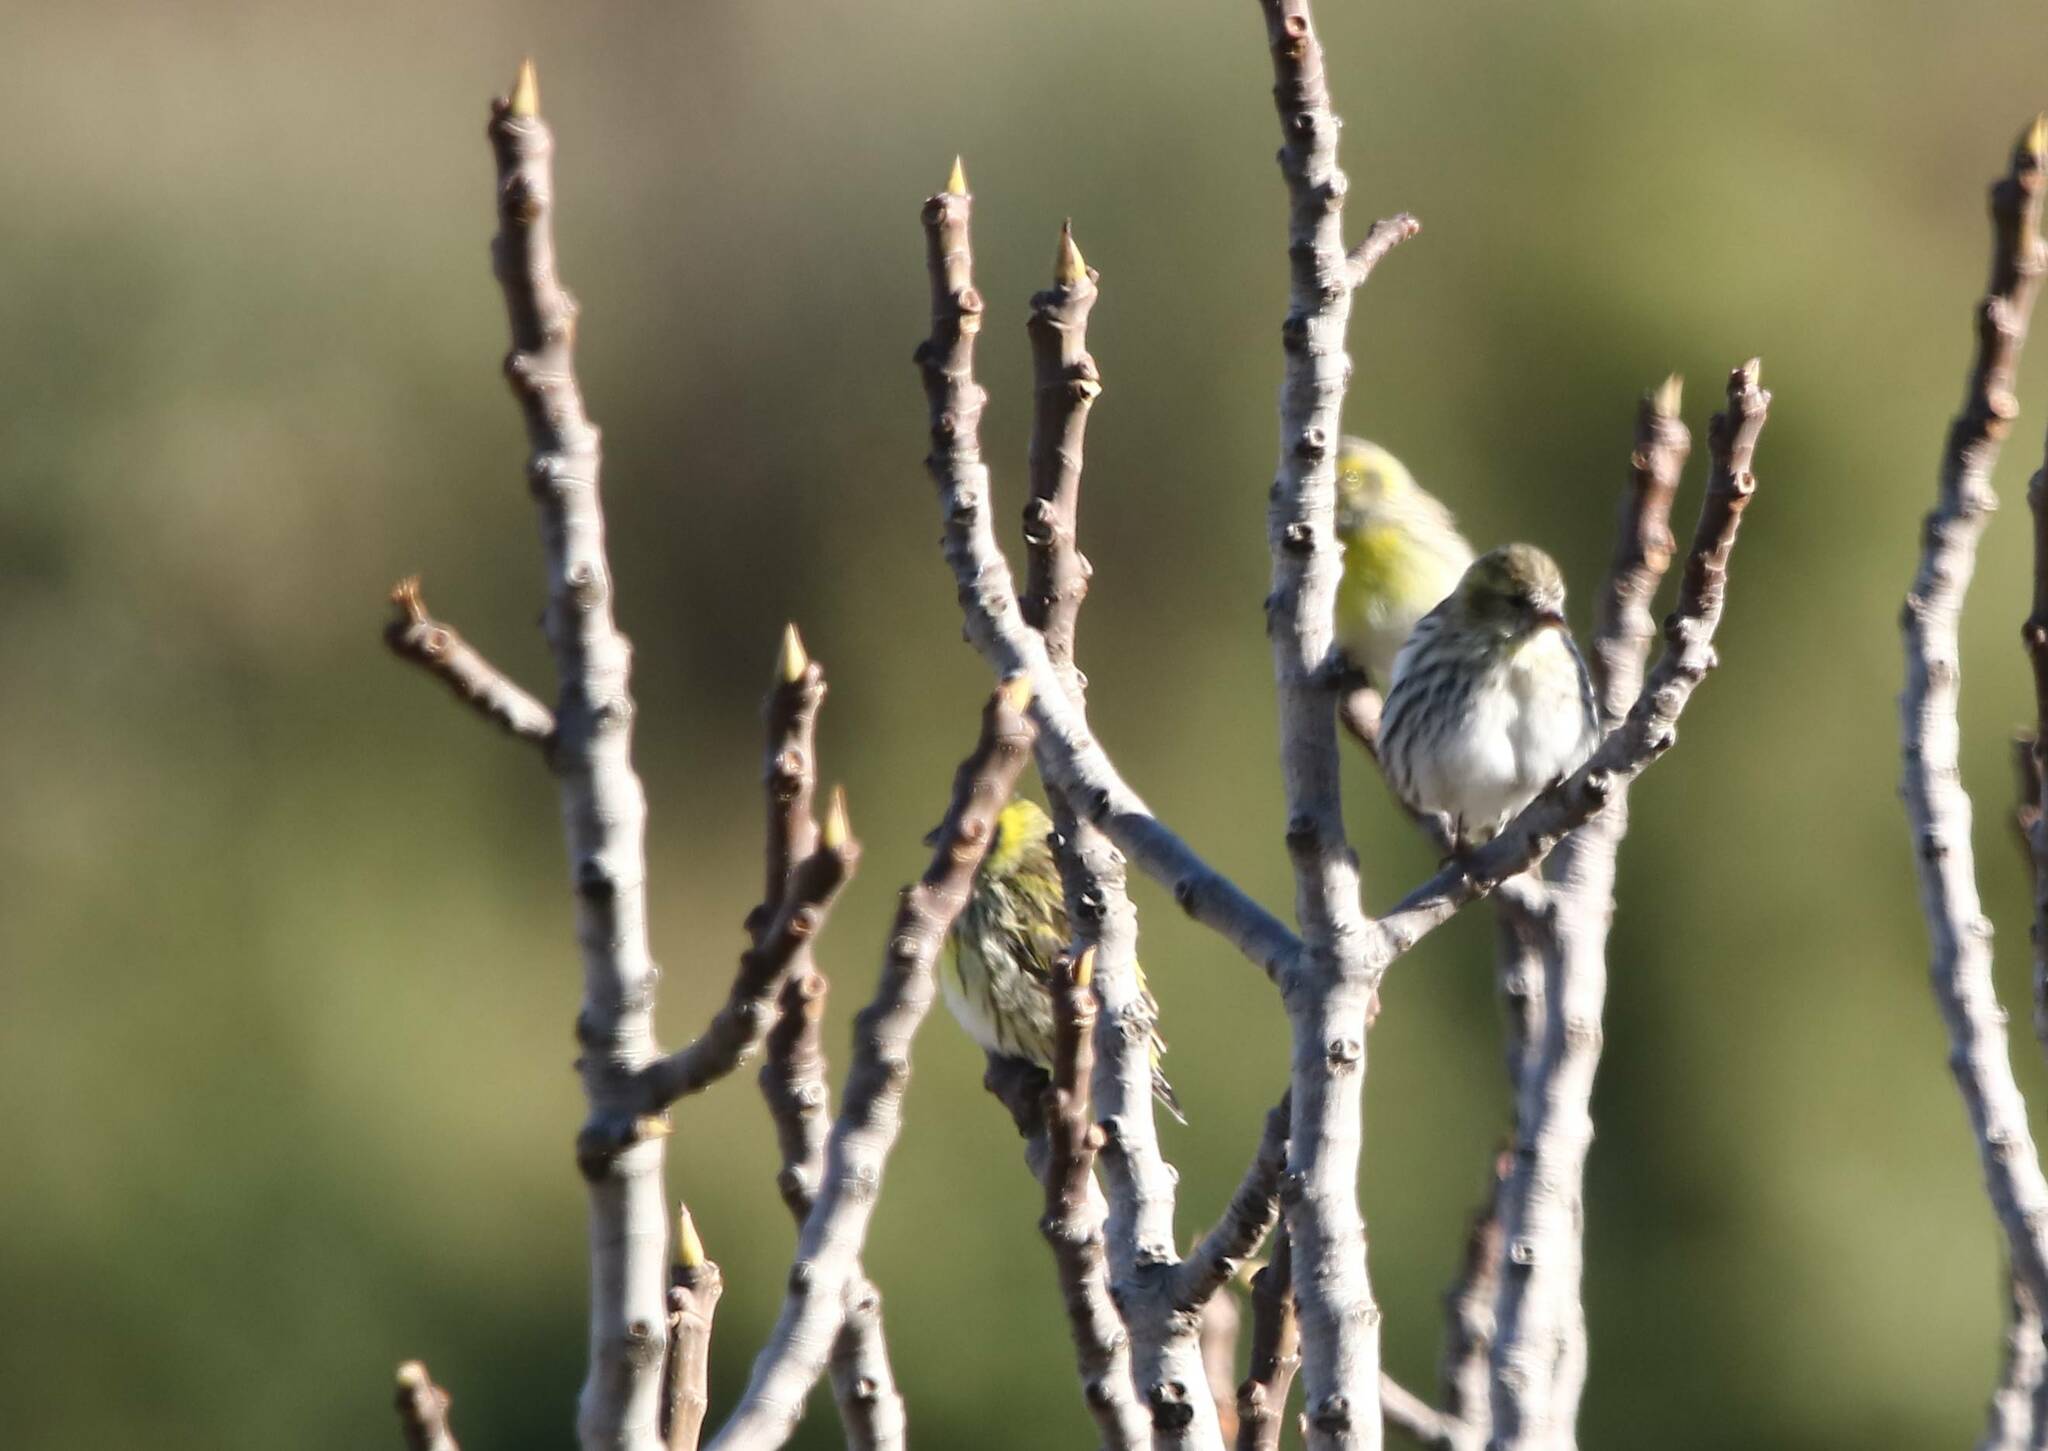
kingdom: Animalia
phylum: Chordata
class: Aves
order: Passeriformes
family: Fringillidae
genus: Spinus
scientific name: Spinus spinus
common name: Eurasian siskin
